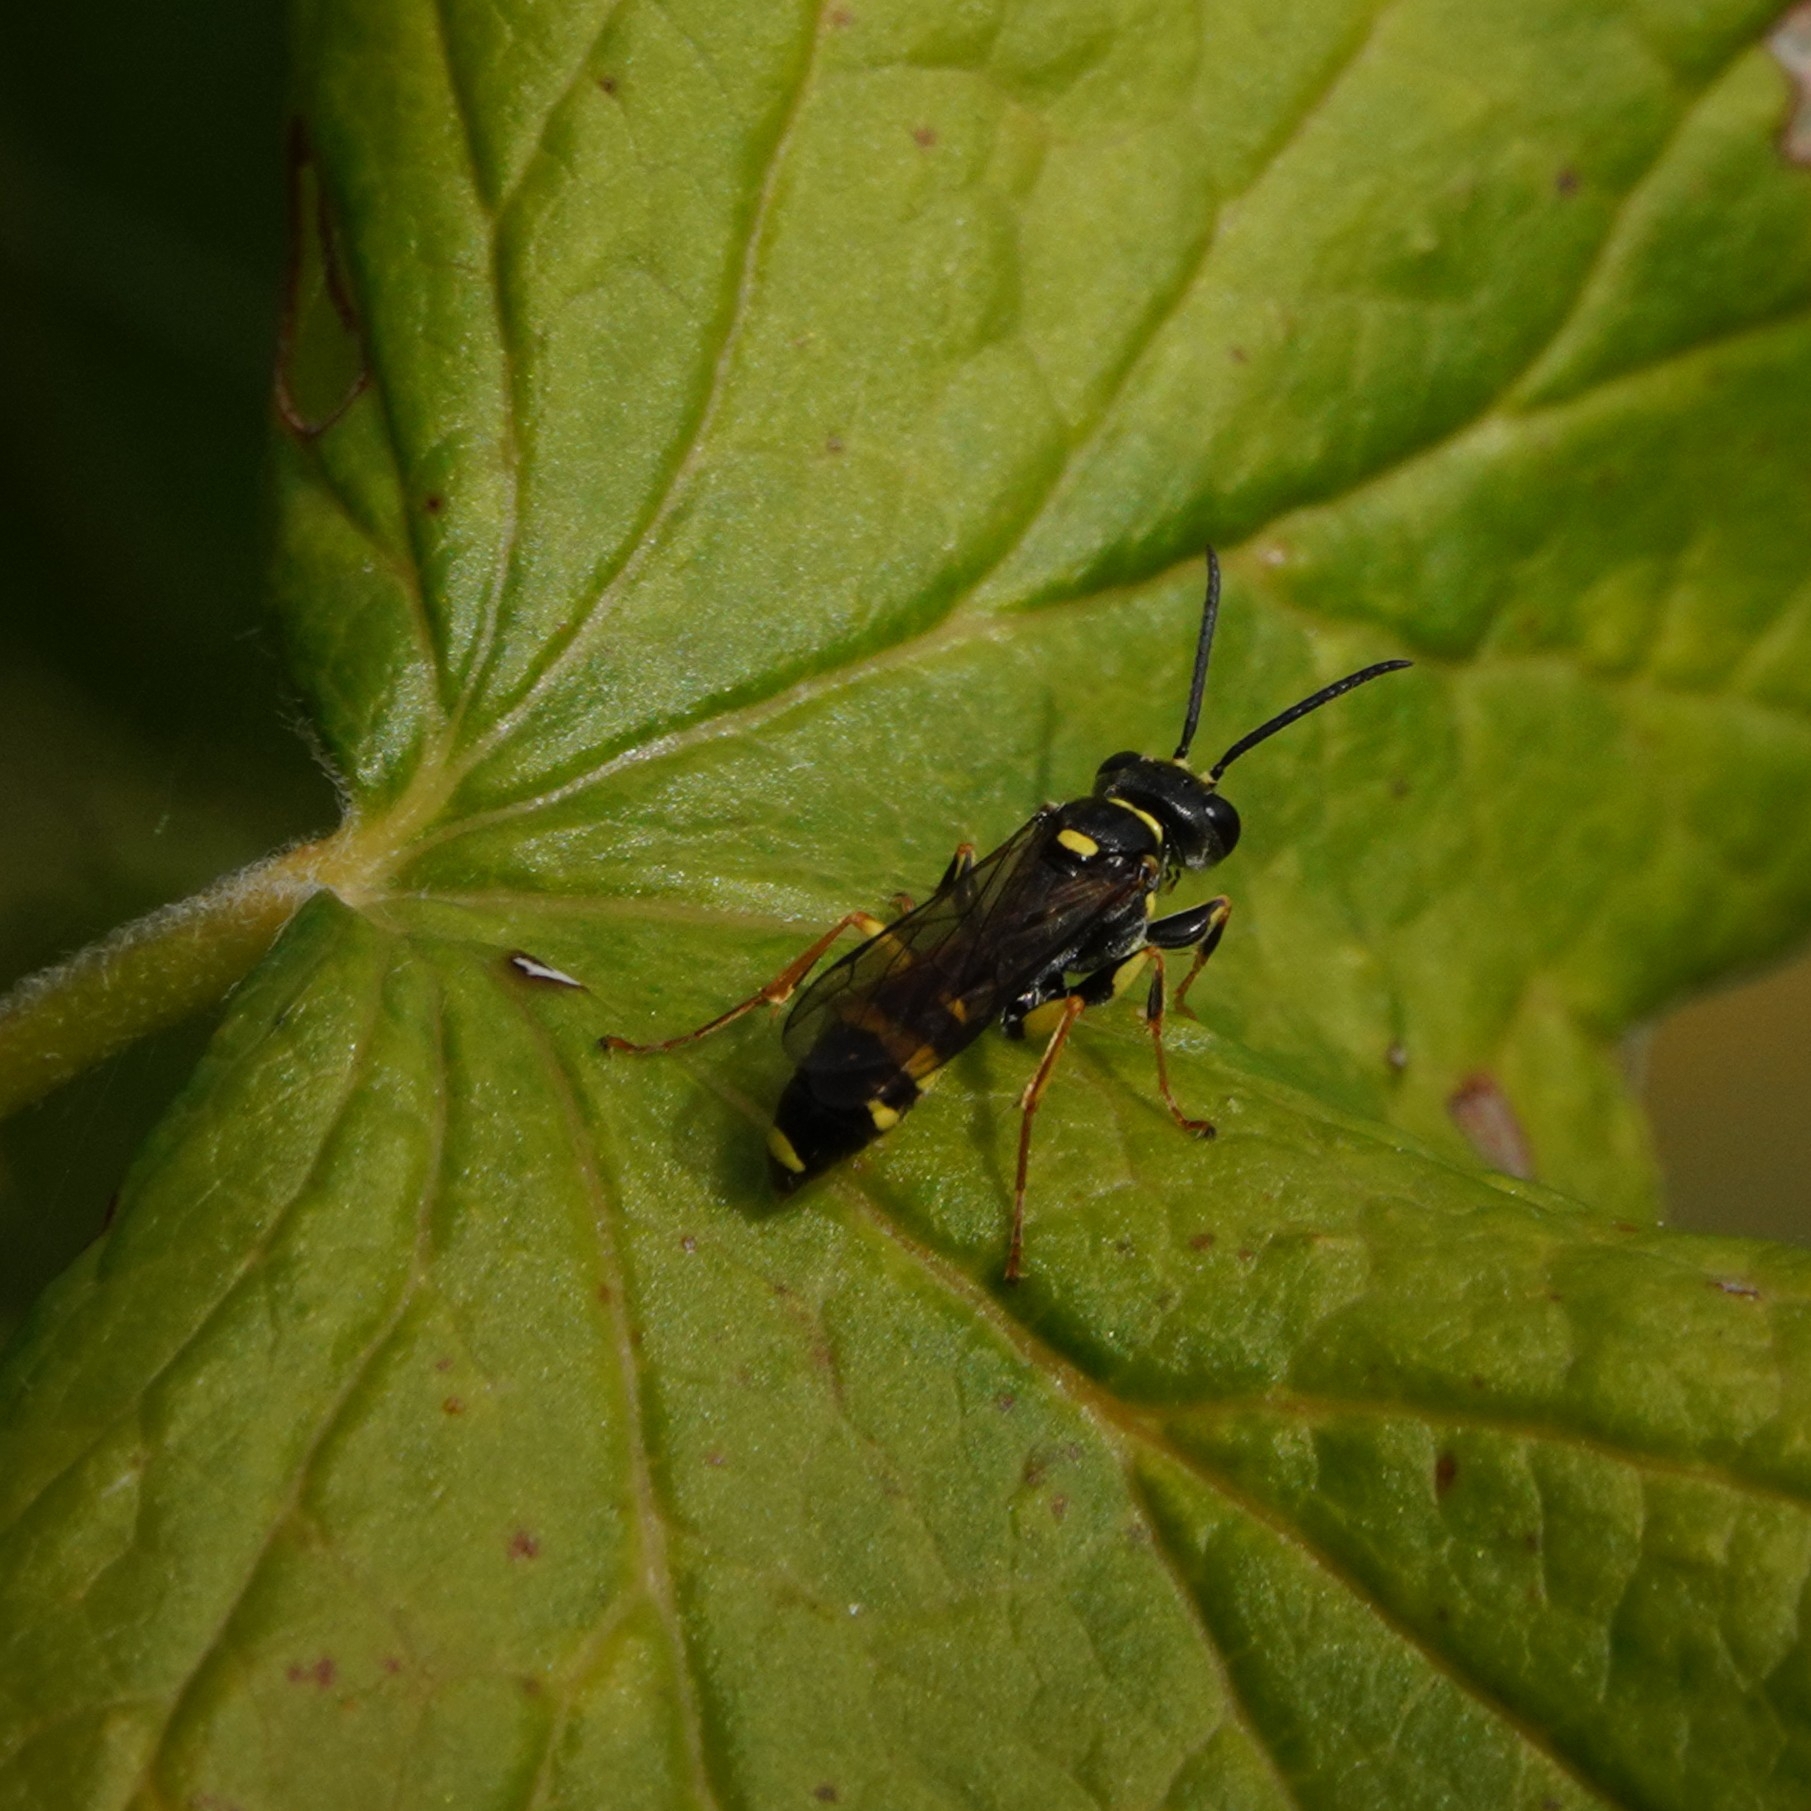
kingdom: Animalia
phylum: Arthropoda
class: Insecta
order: Hymenoptera
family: Crabronidae
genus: Mellinus
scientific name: Mellinus arvensis
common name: Field digger wasp
